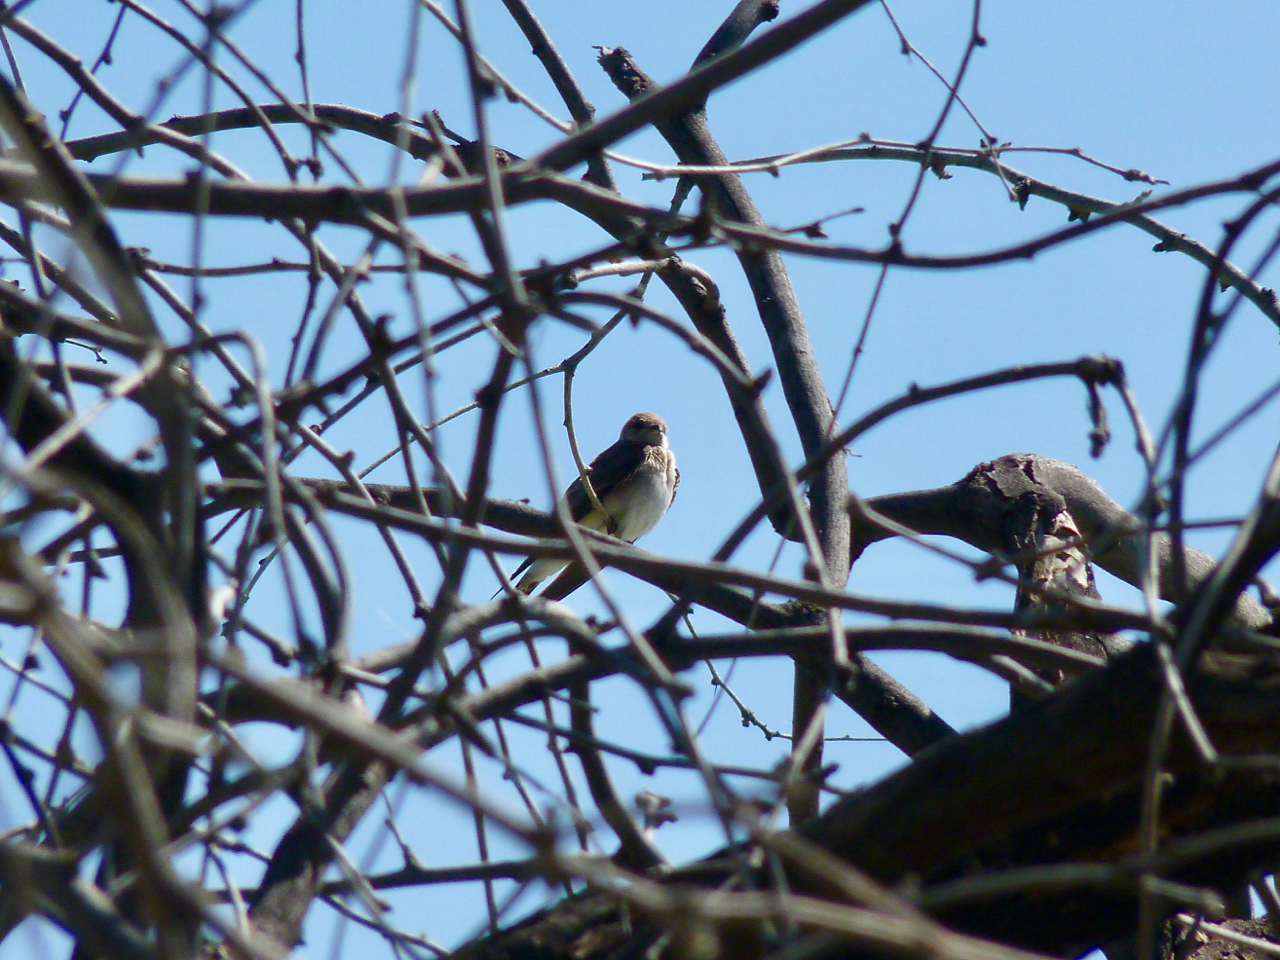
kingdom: Animalia
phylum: Chordata
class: Aves
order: Passeriformes
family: Hirundinidae
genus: Stelgidopteryx
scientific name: Stelgidopteryx serripennis
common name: Northern rough-winged swallow
